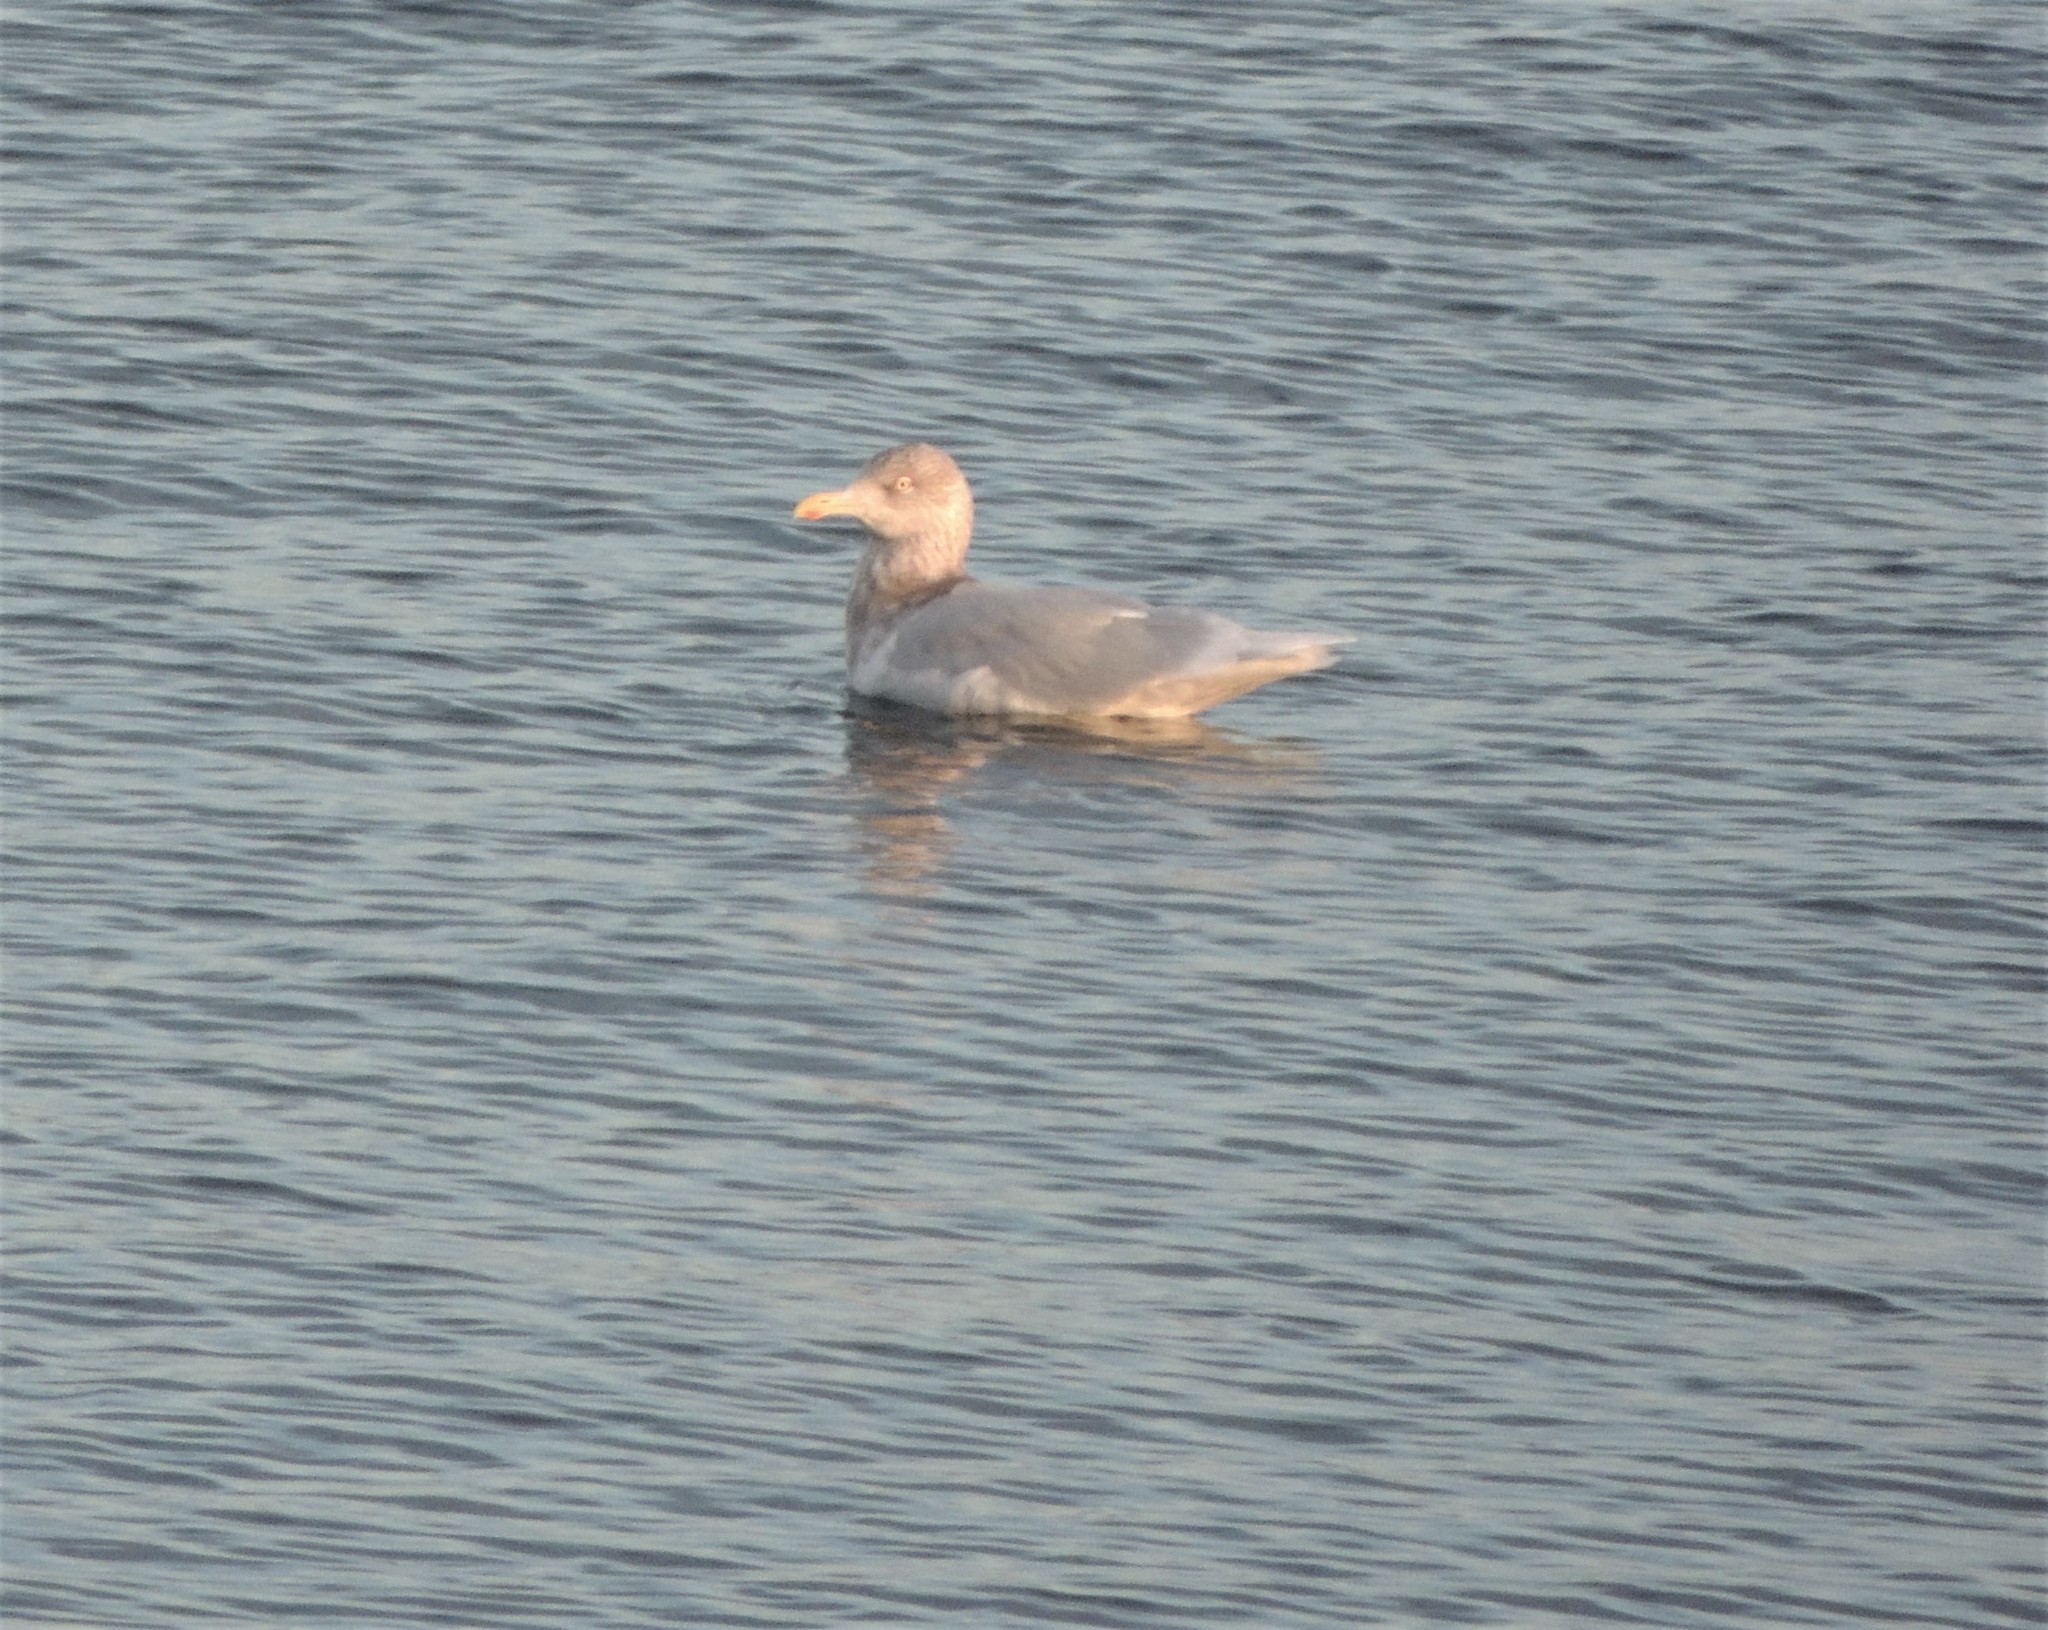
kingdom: Animalia
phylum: Chordata
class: Aves
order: Charadriiformes
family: Laridae
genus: Larus
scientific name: Larus hyperboreus
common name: Glaucous gull
